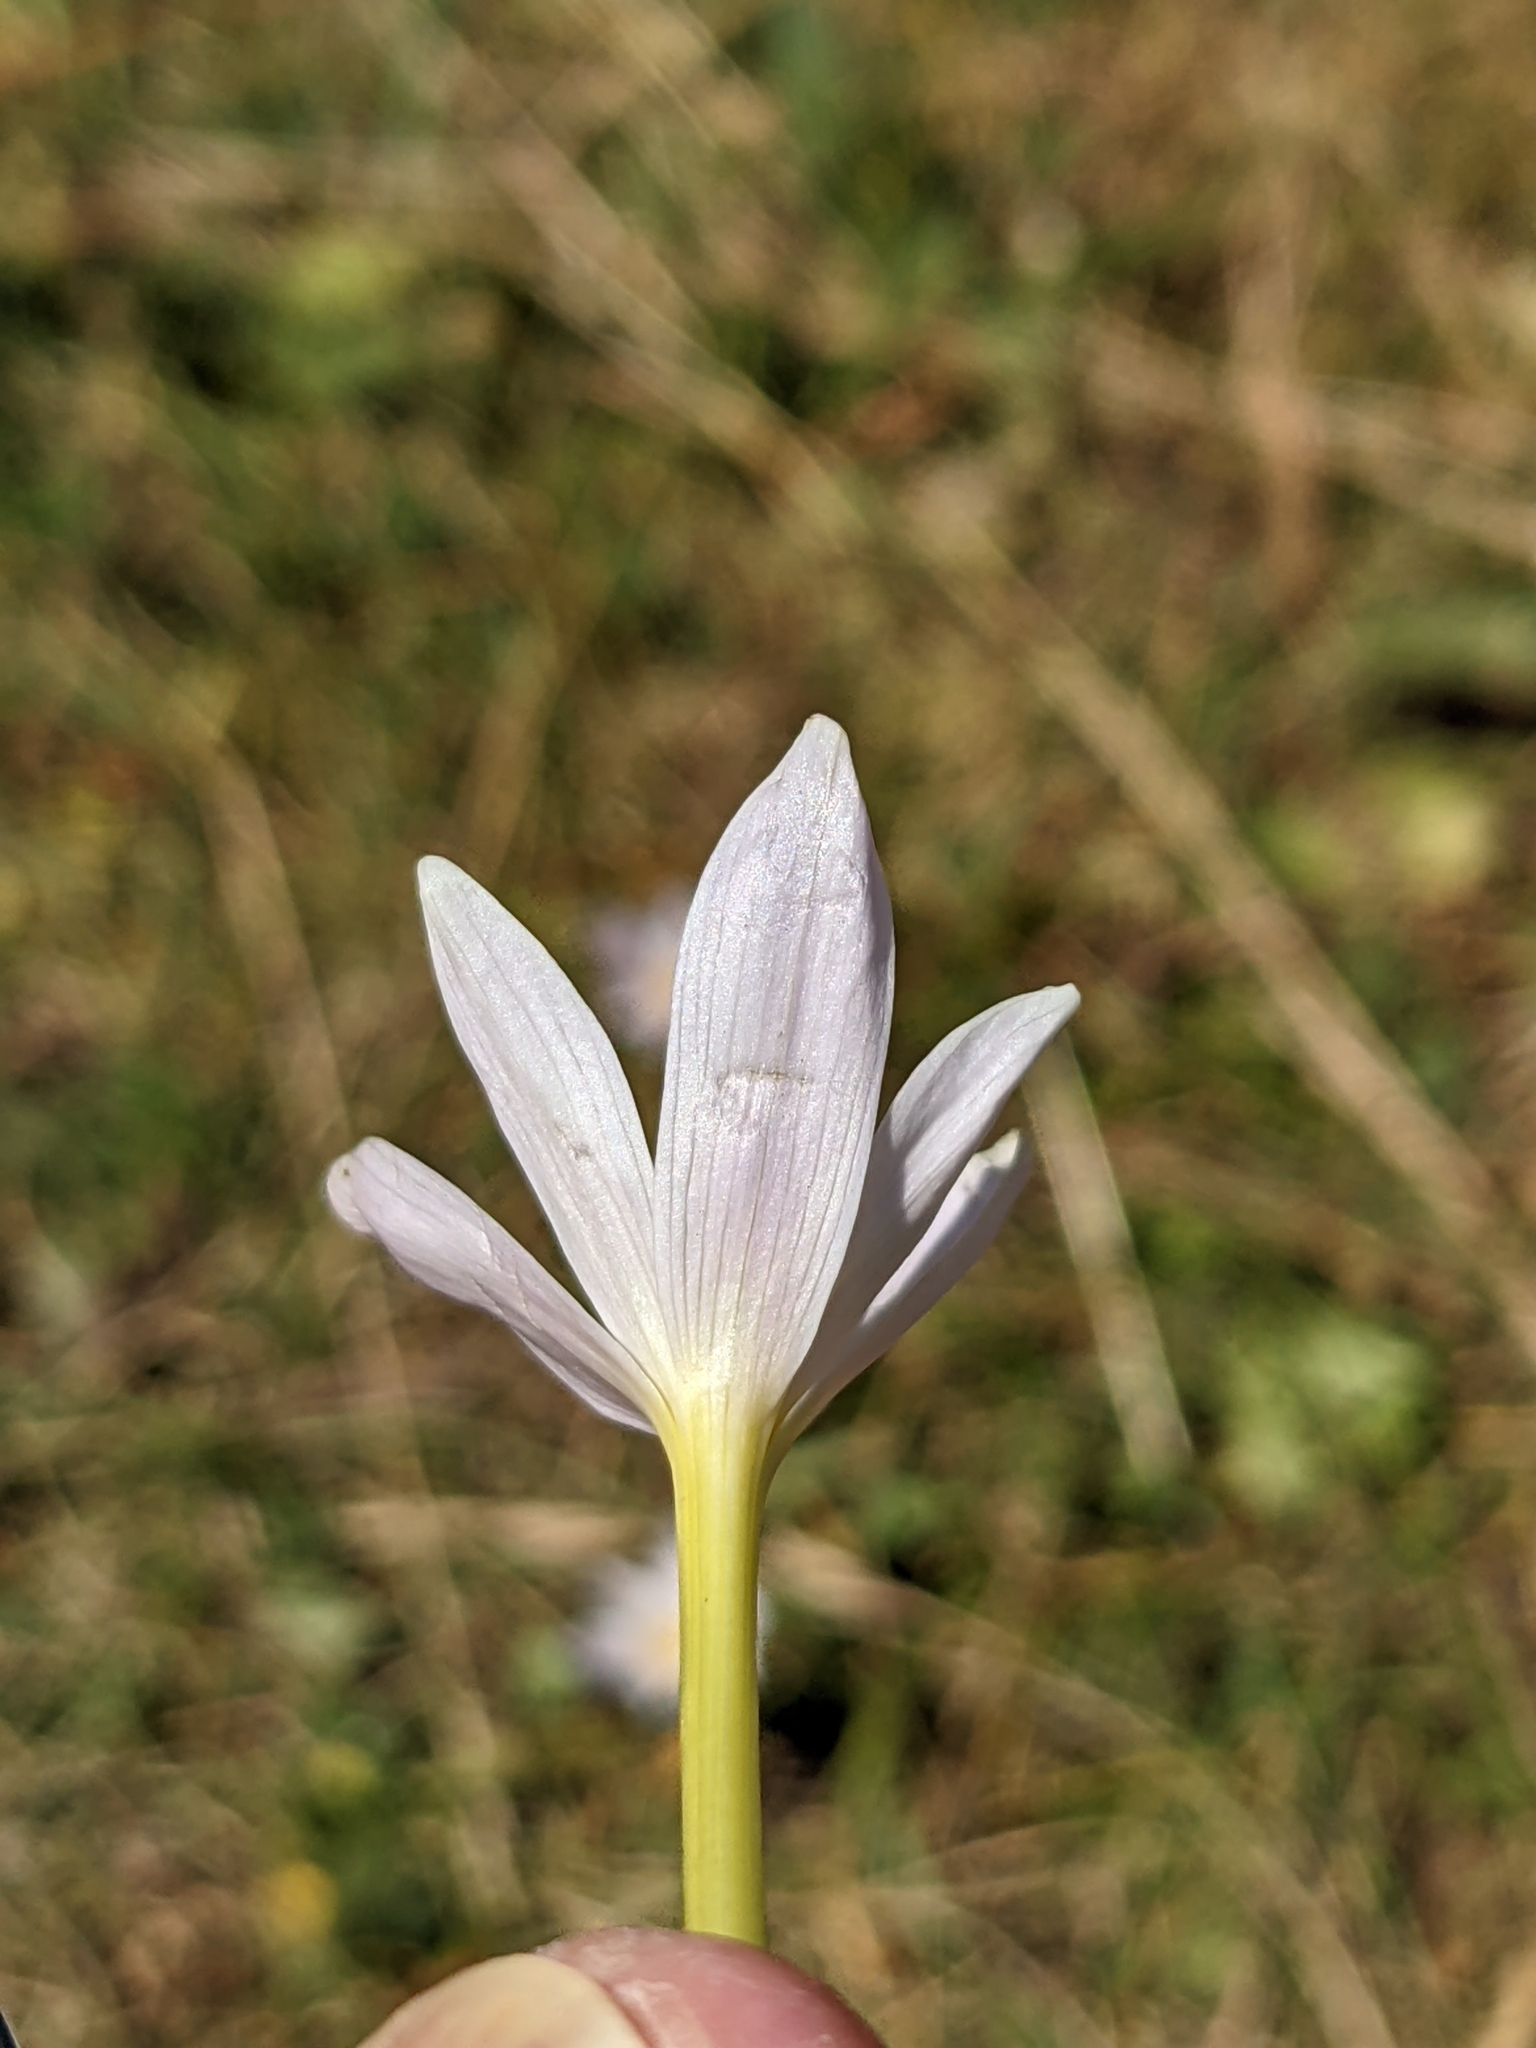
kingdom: Plantae
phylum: Tracheophyta
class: Liliopsida
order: Liliales
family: Colchicaceae
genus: Colchicum
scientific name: Colchicum alpinum
